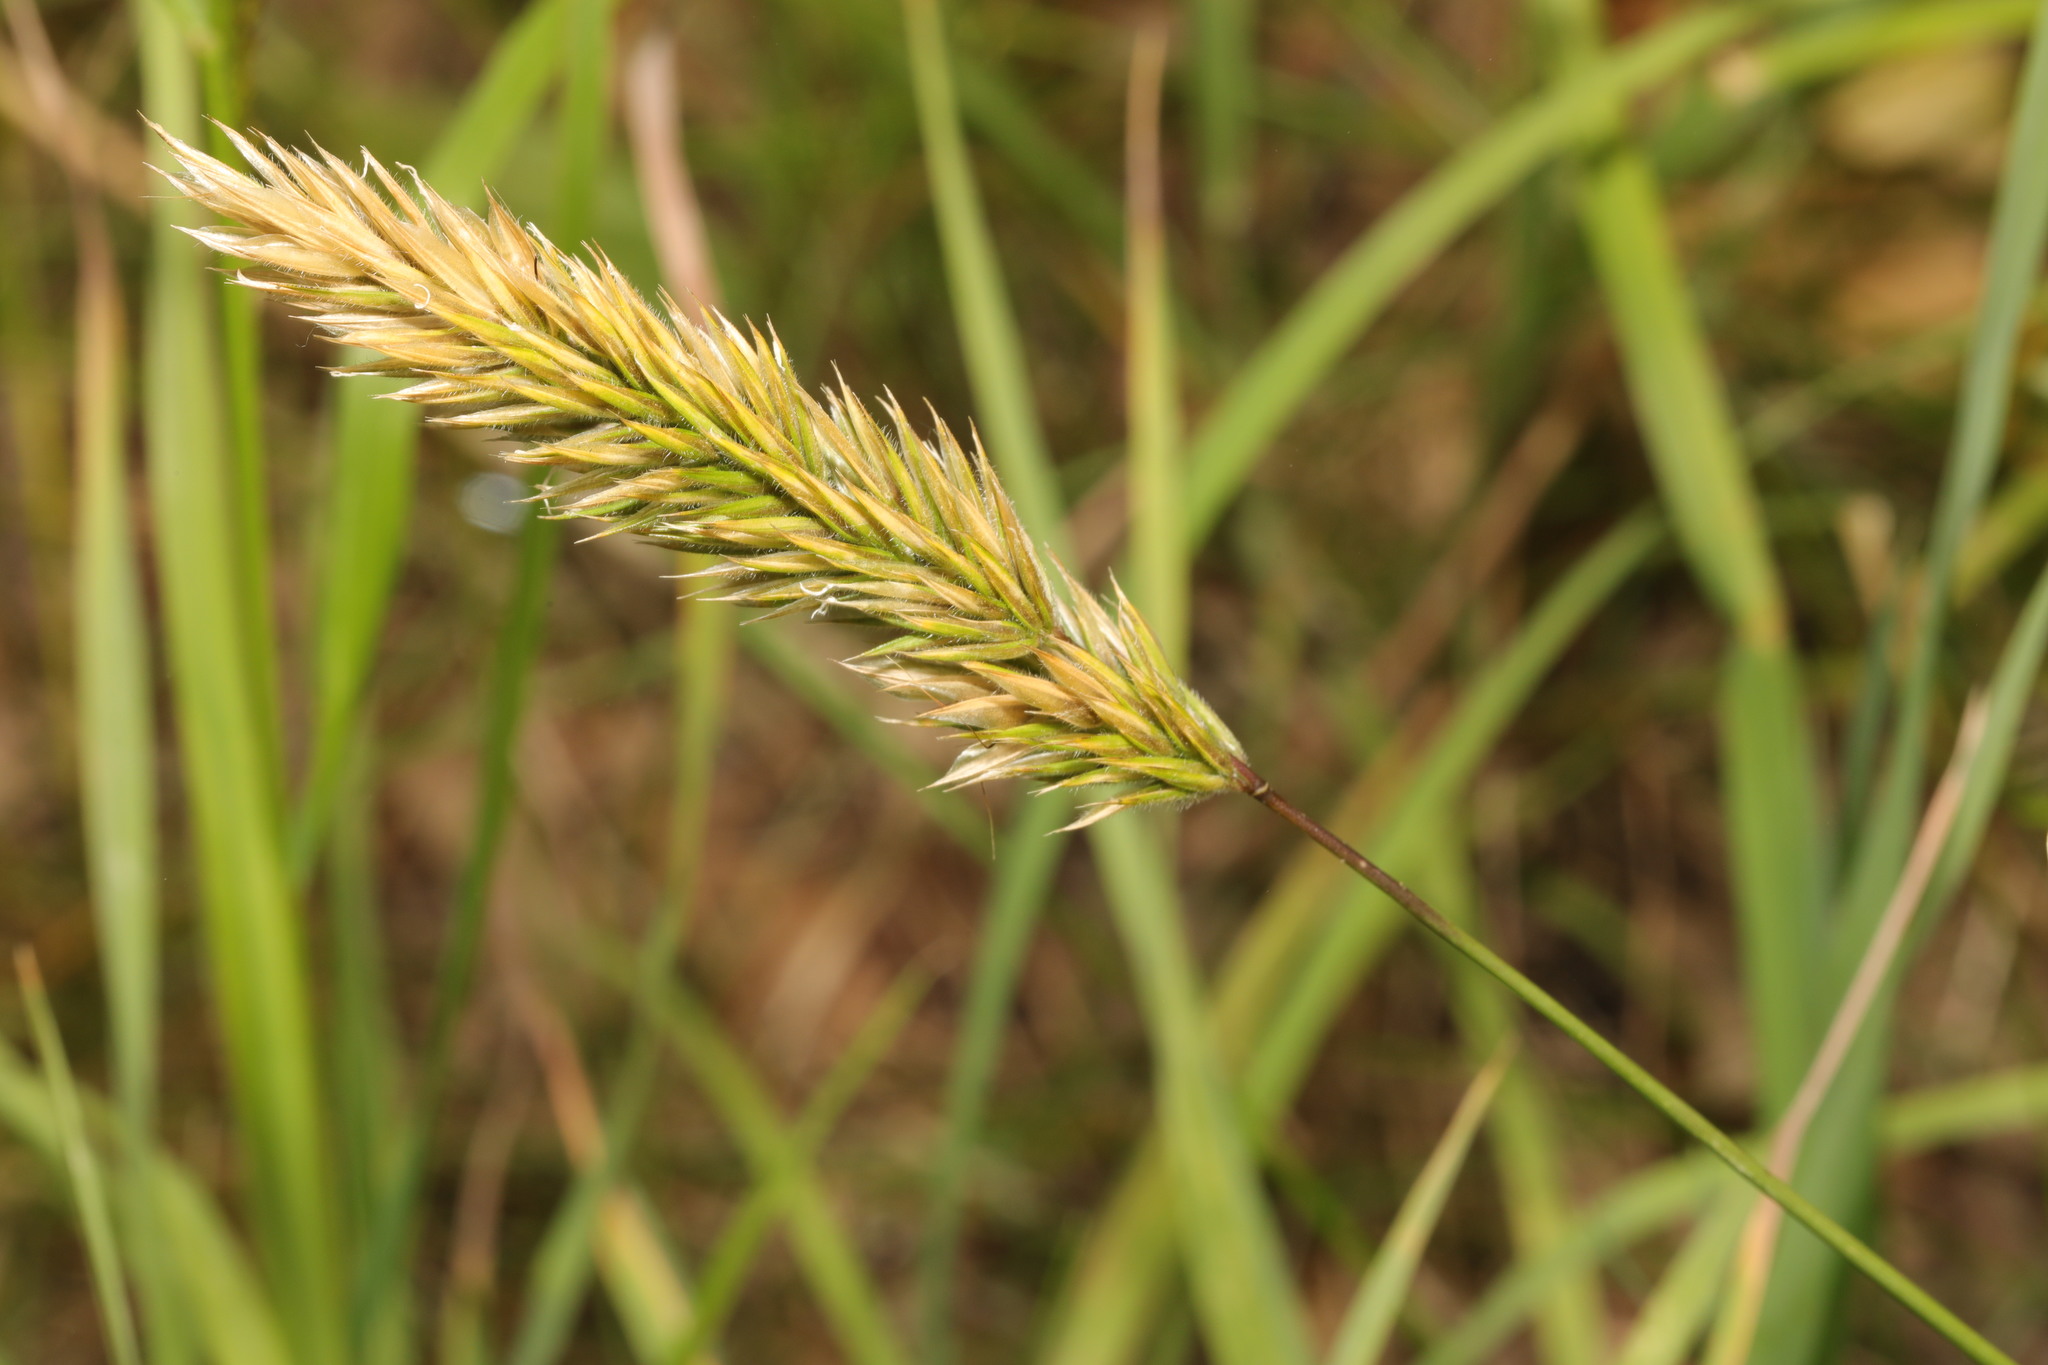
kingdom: Plantae
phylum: Tracheophyta
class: Liliopsida
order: Poales
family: Poaceae
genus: Anthoxanthum
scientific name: Anthoxanthum odoratum
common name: Sweet vernalgrass
